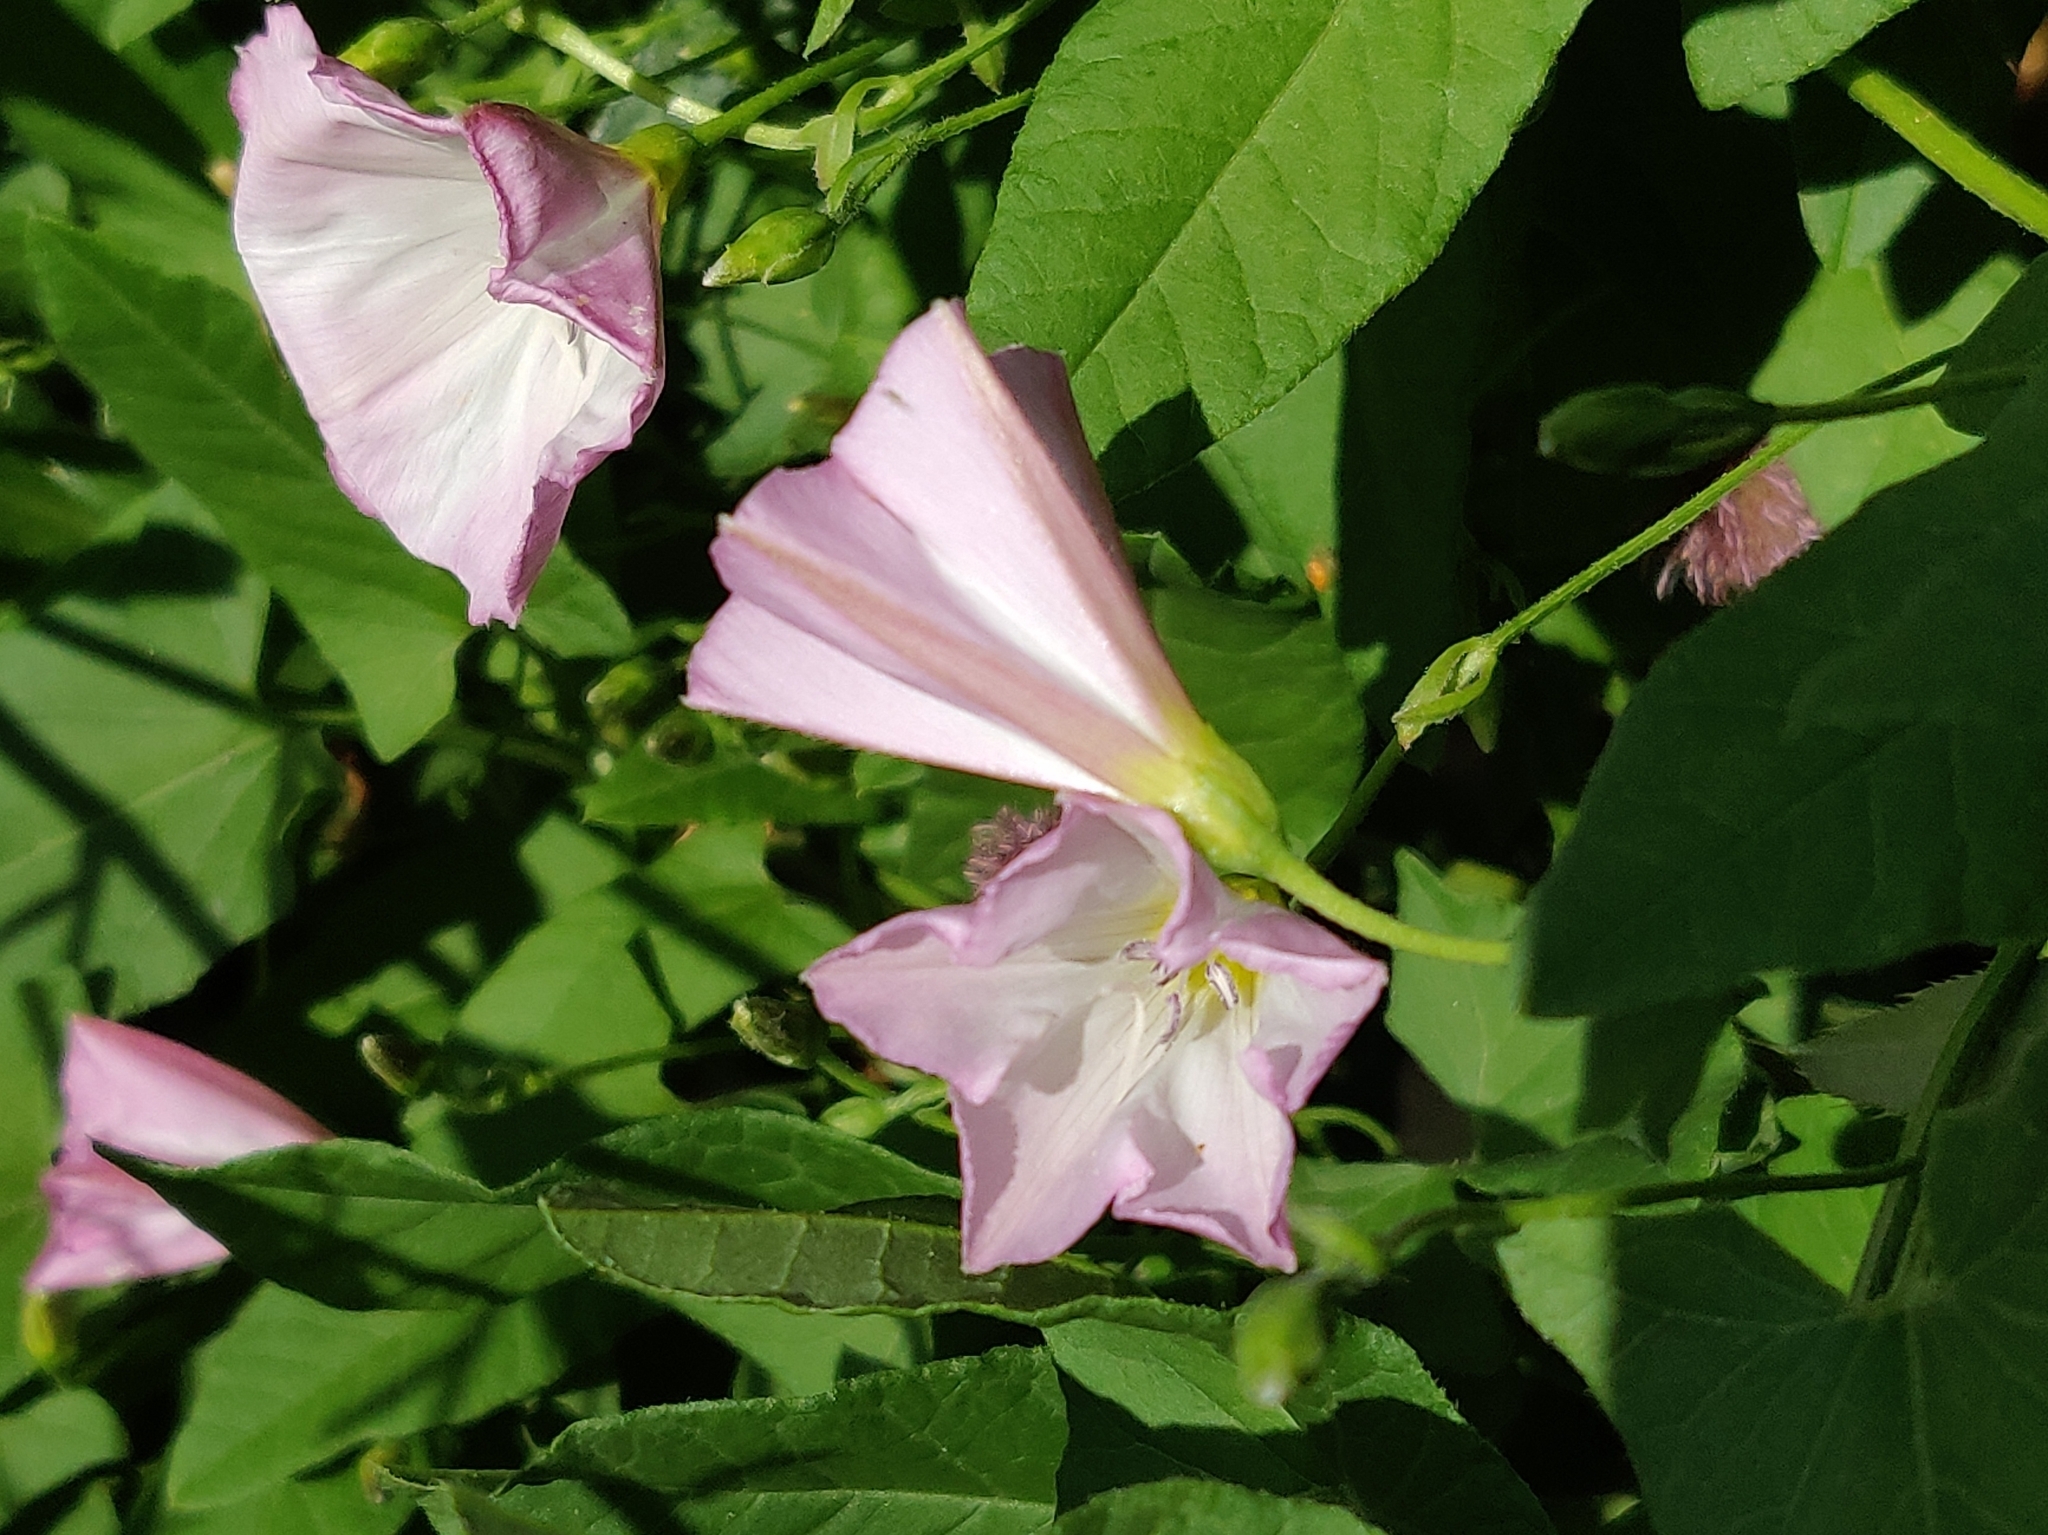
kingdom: Plantae
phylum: Tracheophyta
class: Magnoliopsida
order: Solanales
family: Convolvulaceae
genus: Convolvulus
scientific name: Convolvulus arvensis
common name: Field bindweed
